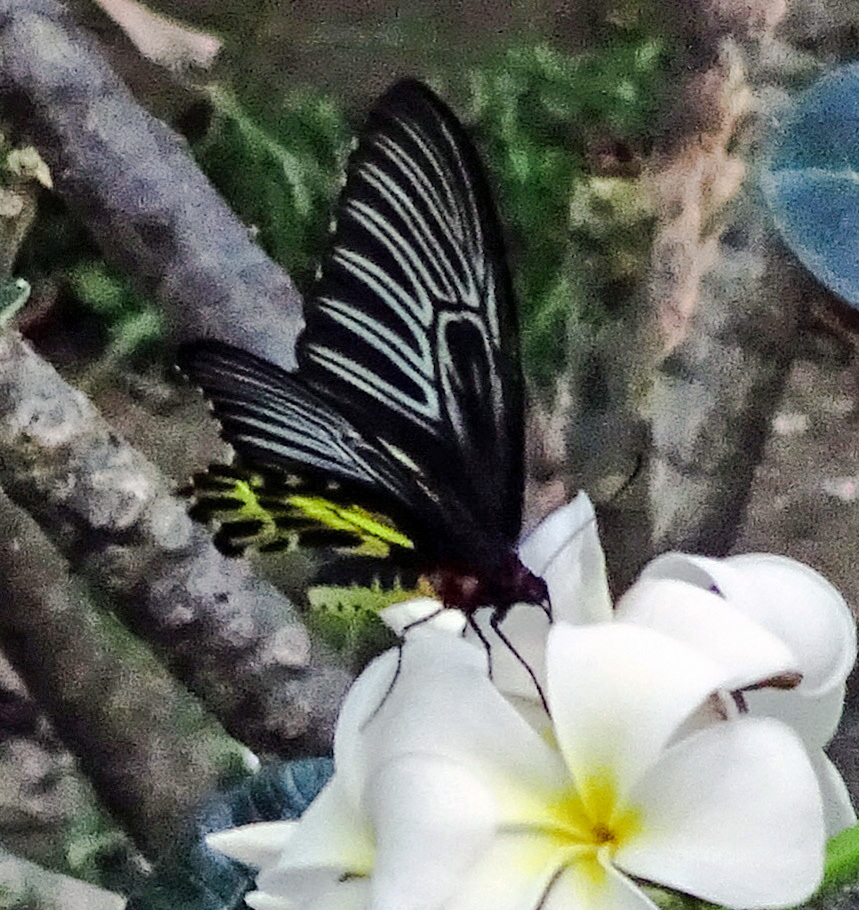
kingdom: Animalia
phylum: Arthropoda
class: Insecta
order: Lepidoptera
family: Papilionidae
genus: Troides
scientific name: Troides aeacus
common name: Golden birdwing
